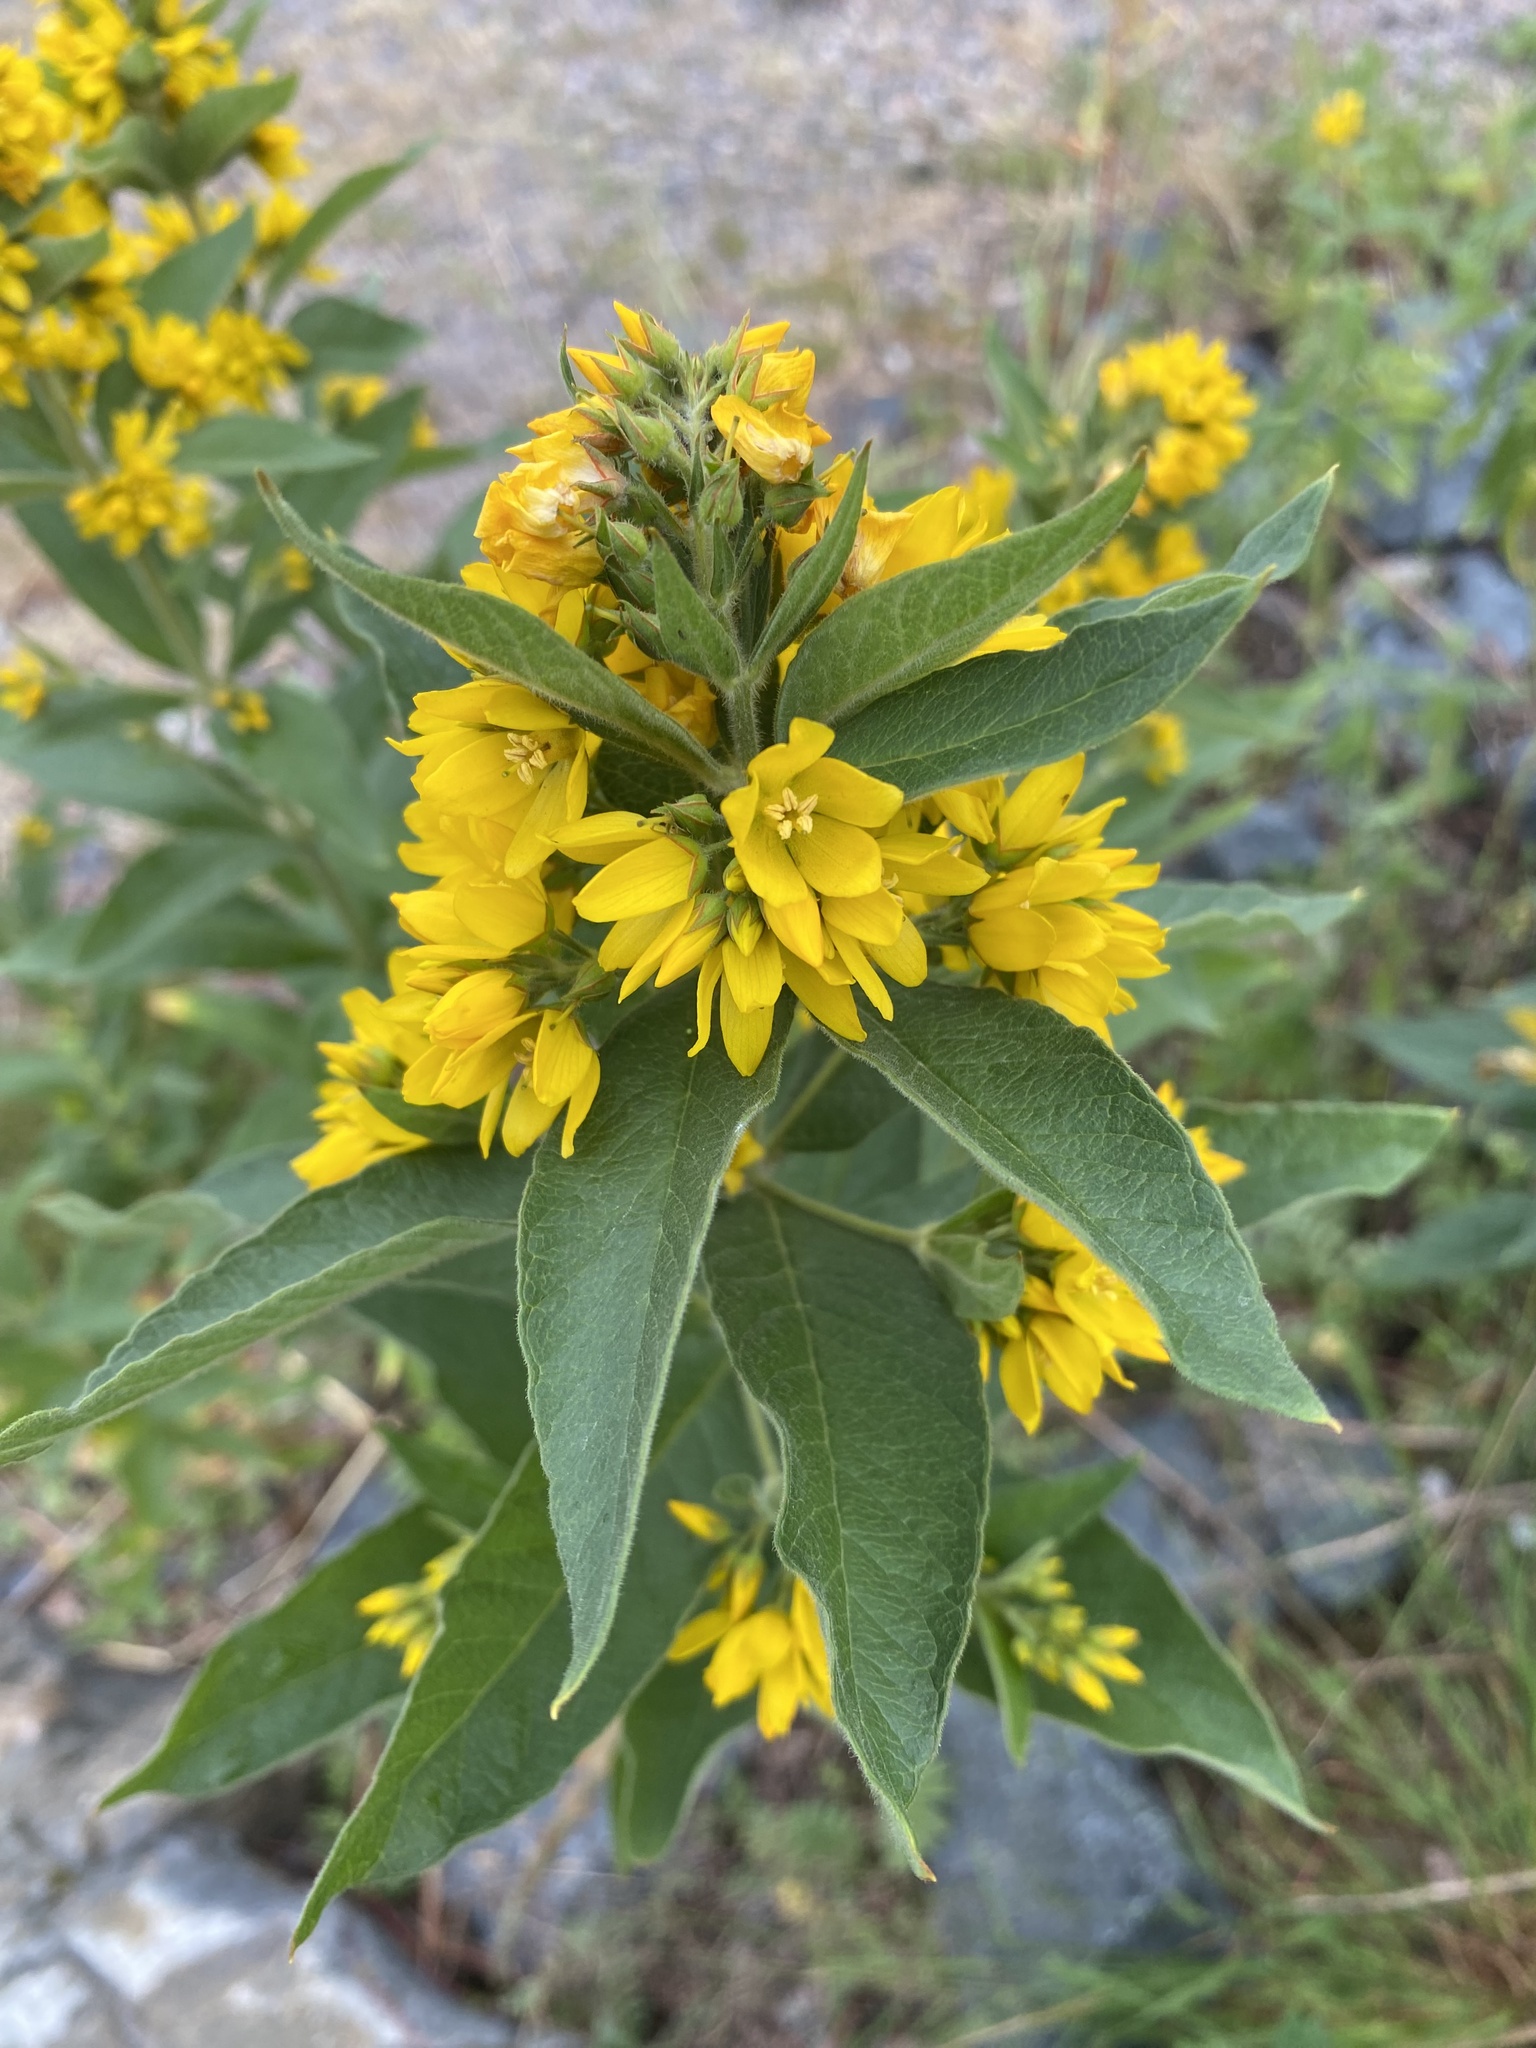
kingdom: Plantae
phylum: Tracheophyta
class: Magnoliopsida
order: Ericales
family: Primulaceae
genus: Lysimachia
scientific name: Lysimachia vulgaris
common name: Yellow loosestrife
